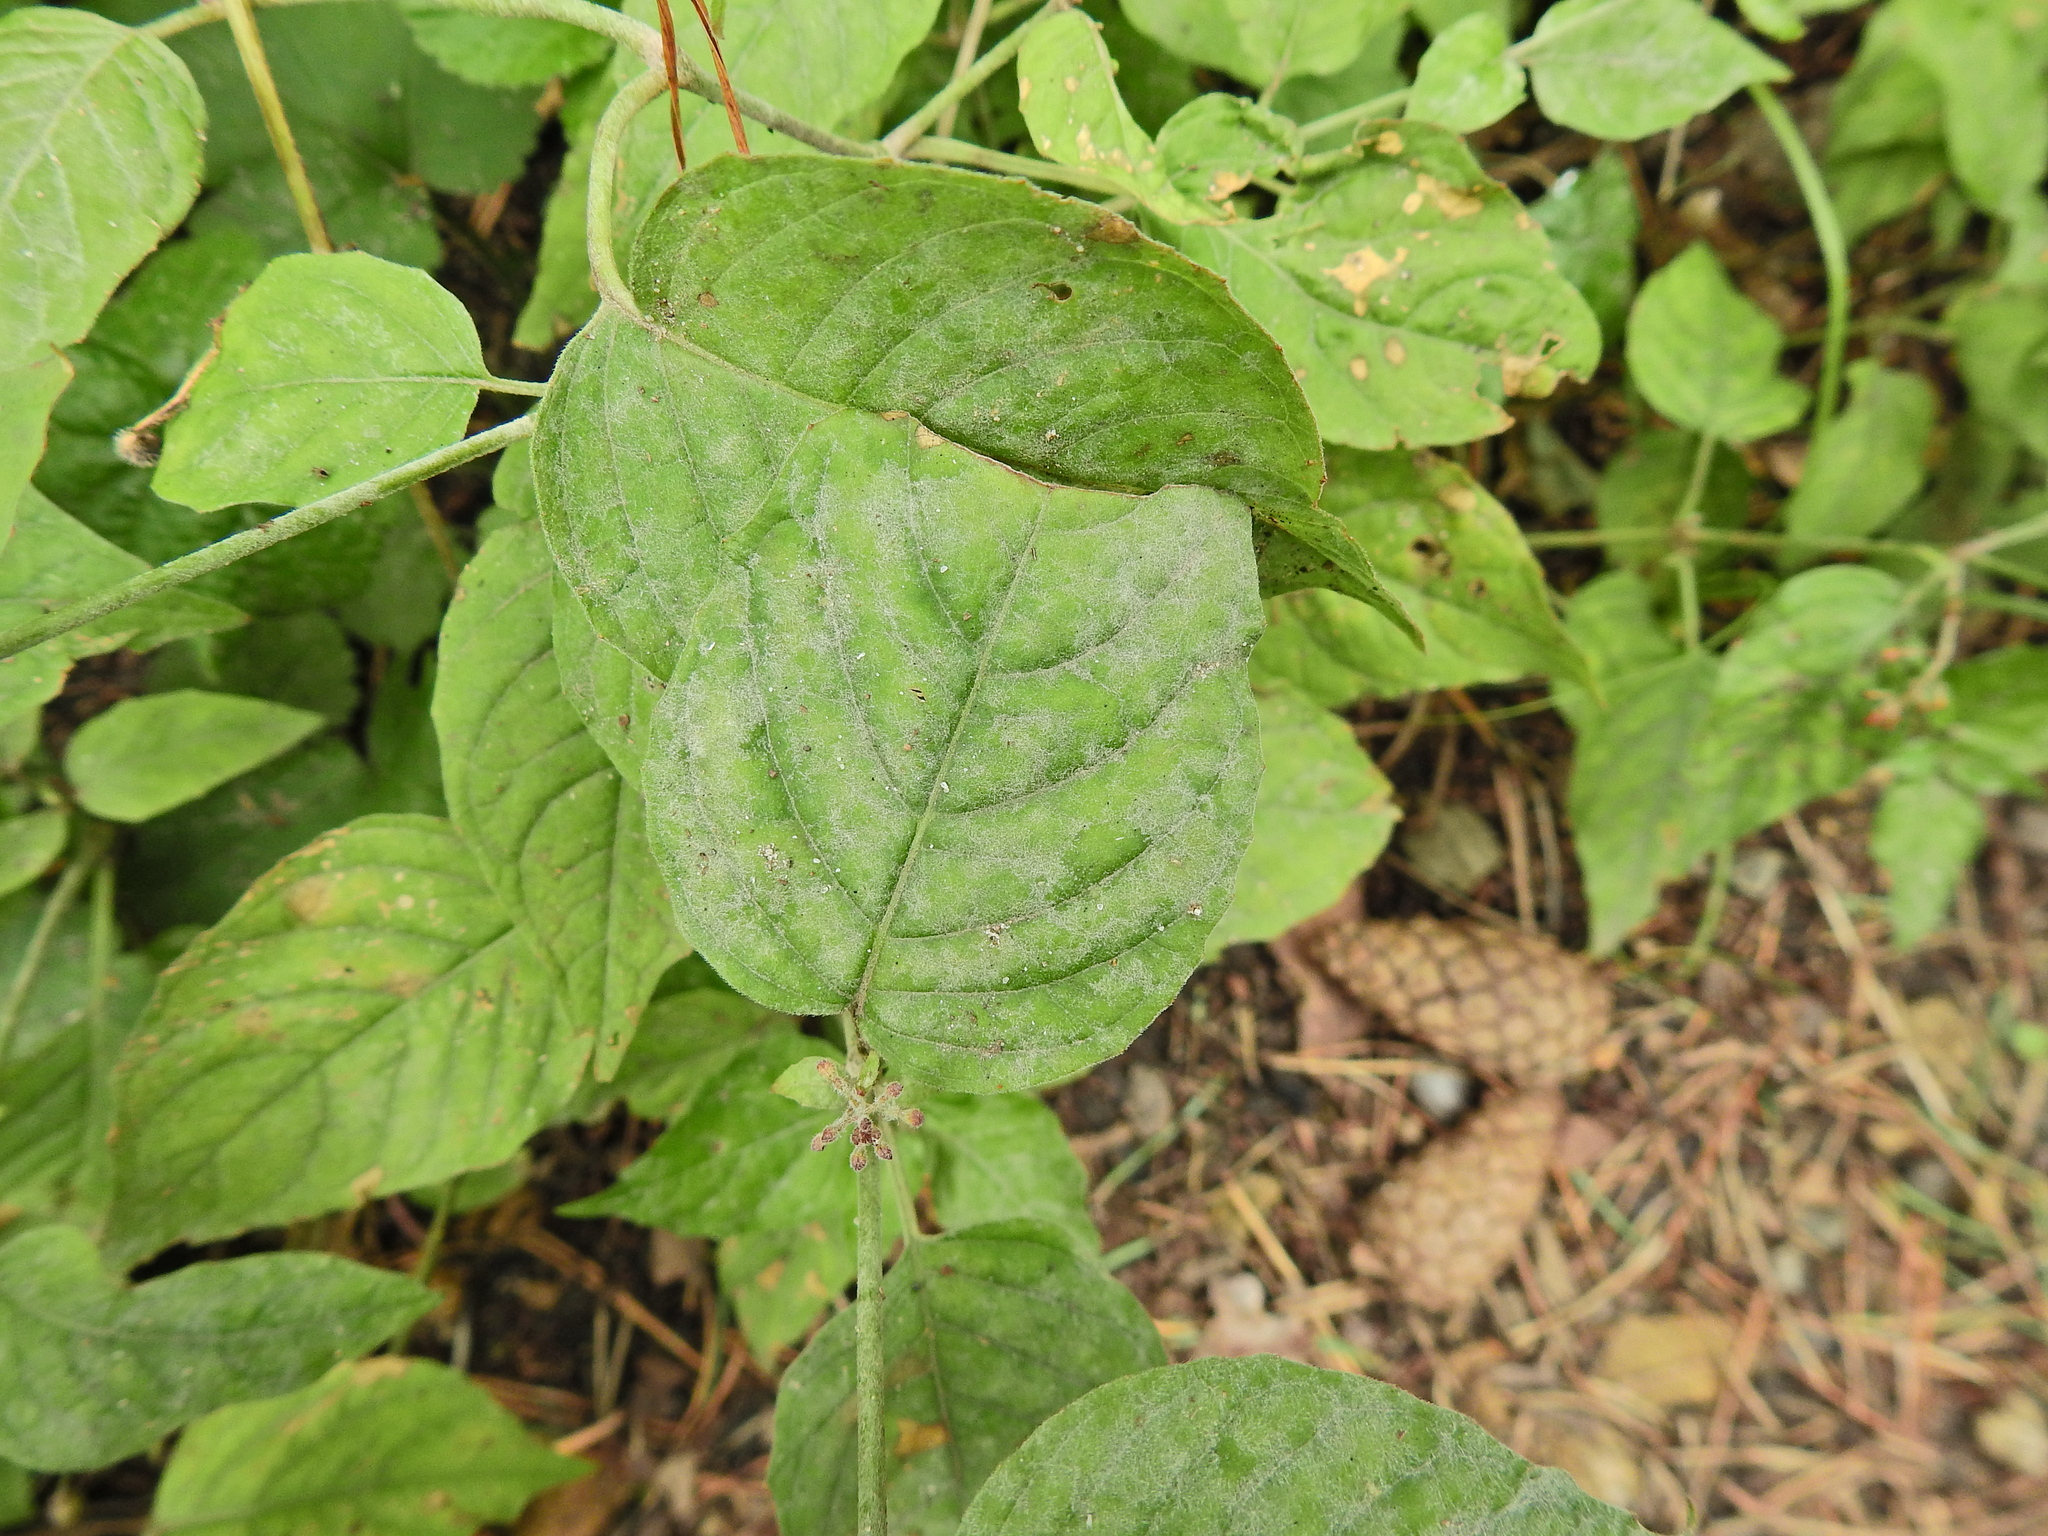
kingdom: Fungi
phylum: Ascomycota
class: Leotiomycetes
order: Helotiales
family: Erysiphaceae
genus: Erysiphe
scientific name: Erysiphe circaeae
